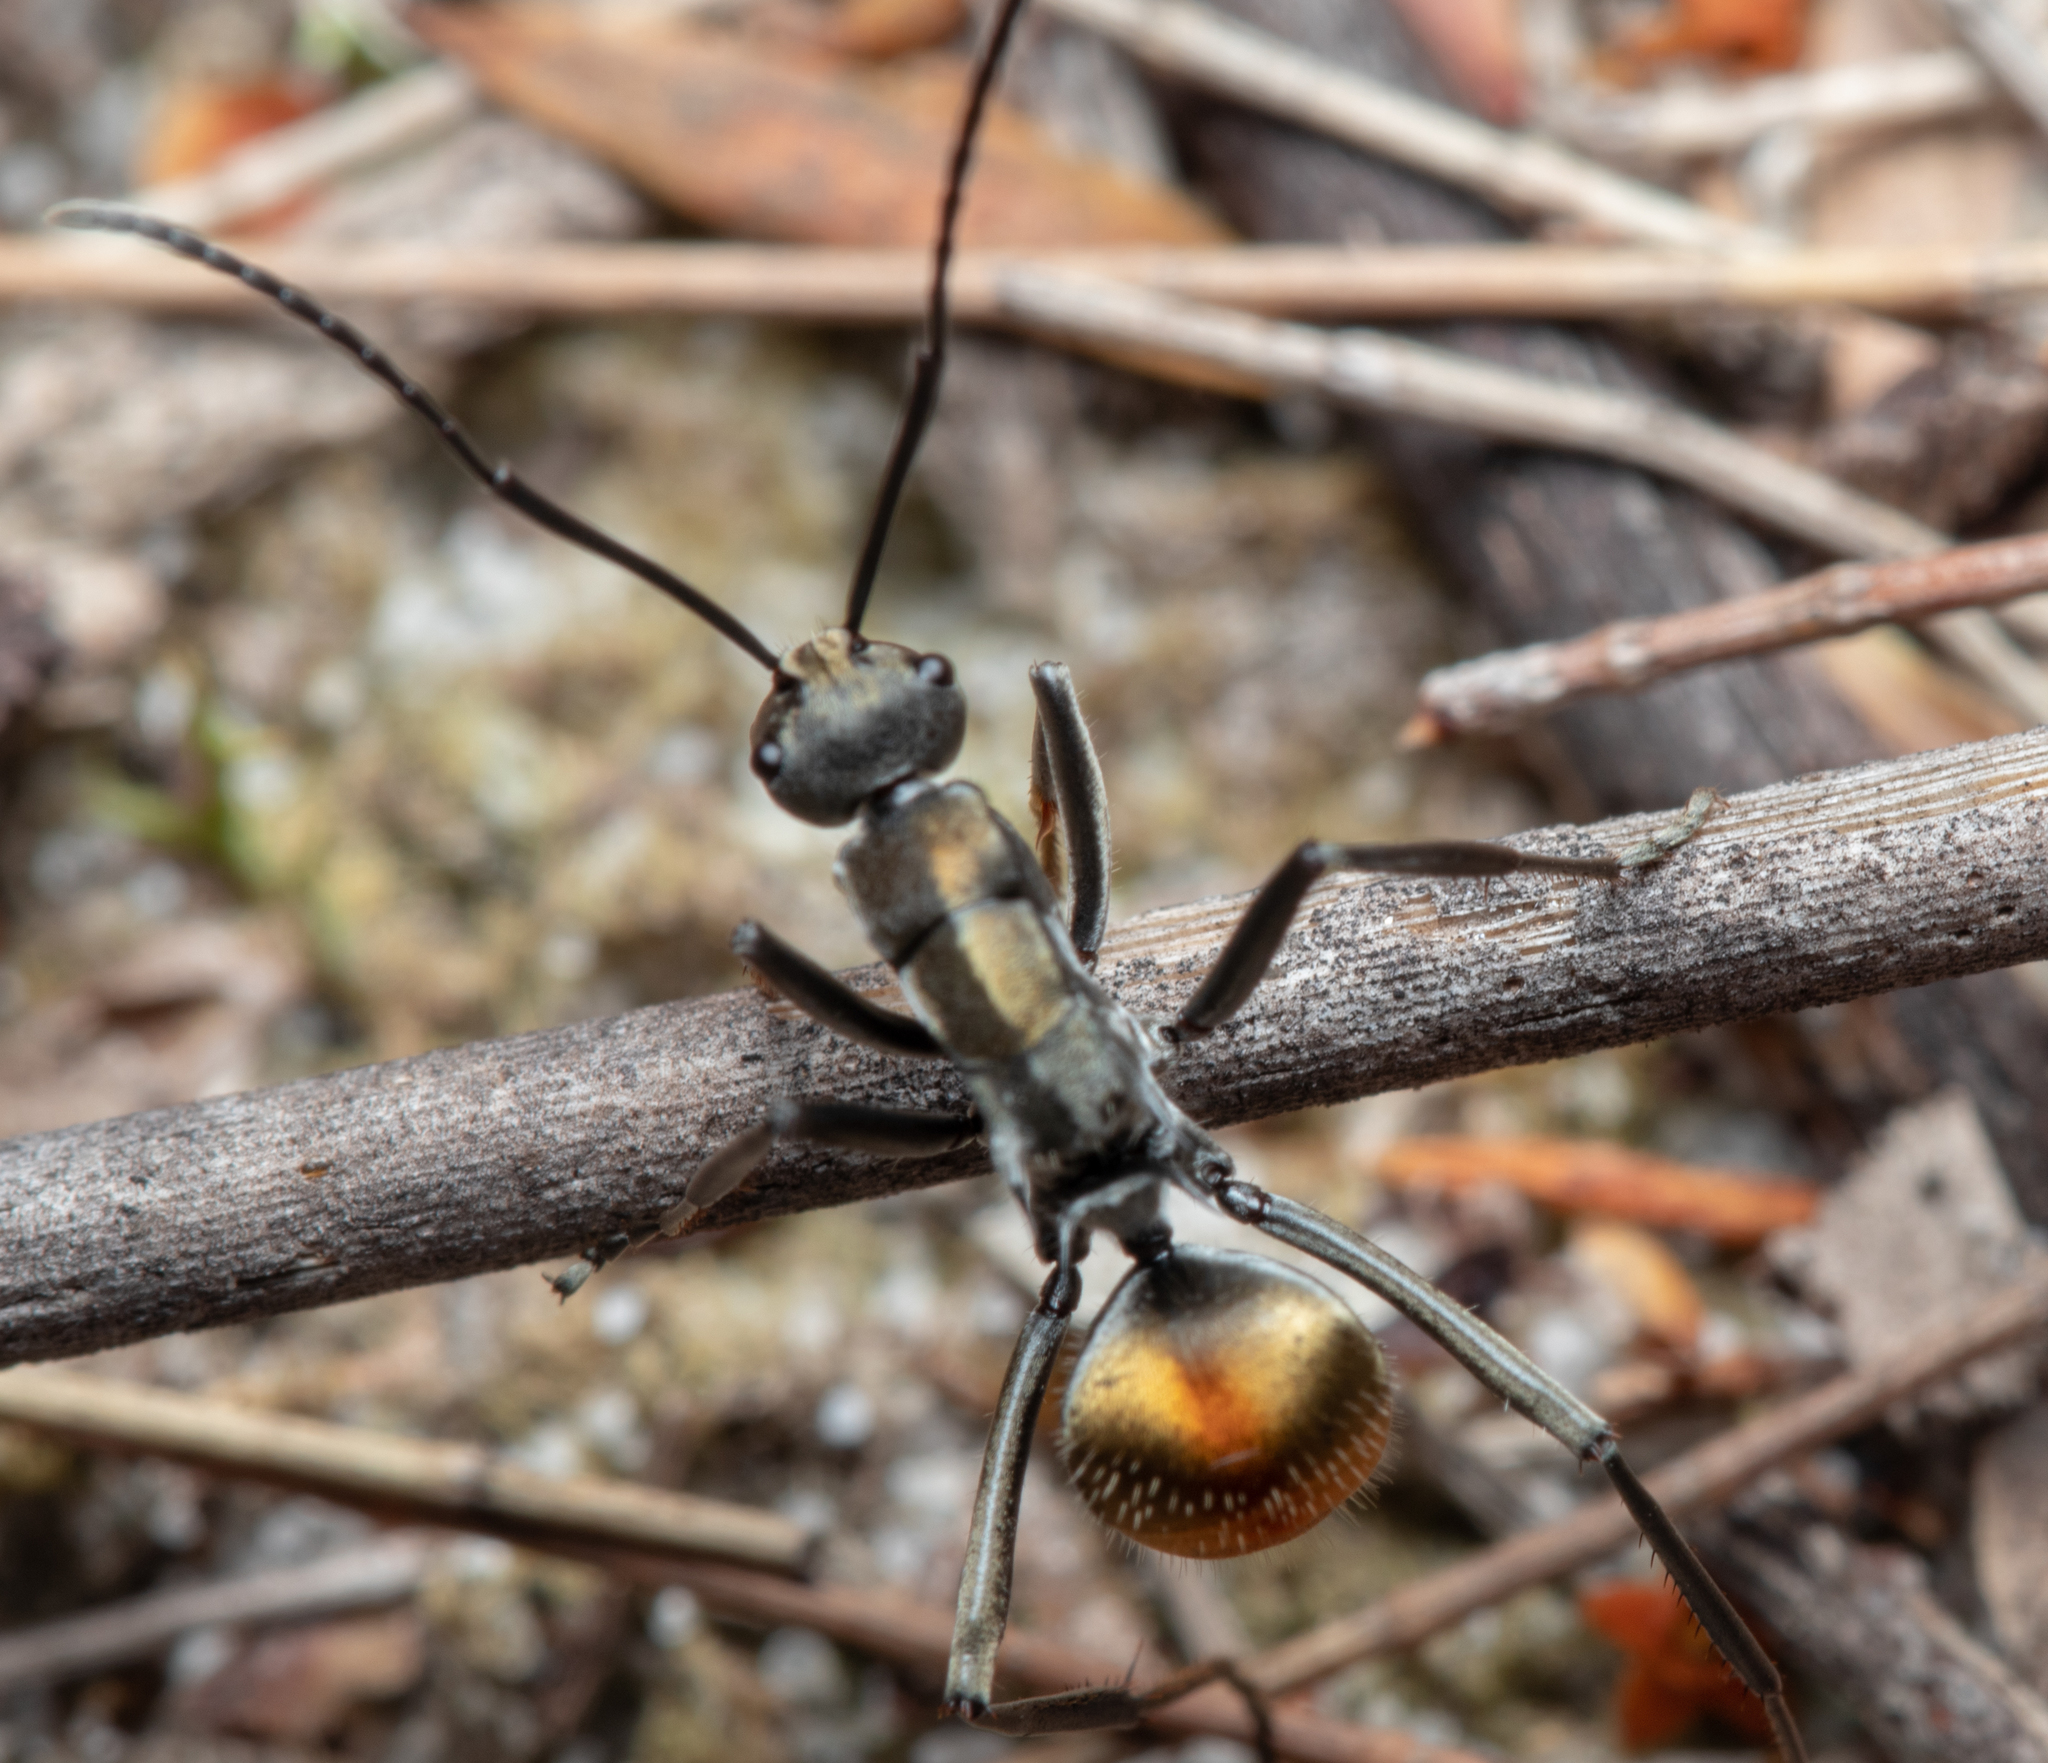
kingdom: Animalia
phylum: Arthropoda
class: Insecta
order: Hymenoptera
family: Formicidae
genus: Polyrhachis
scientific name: Polyrhachis
